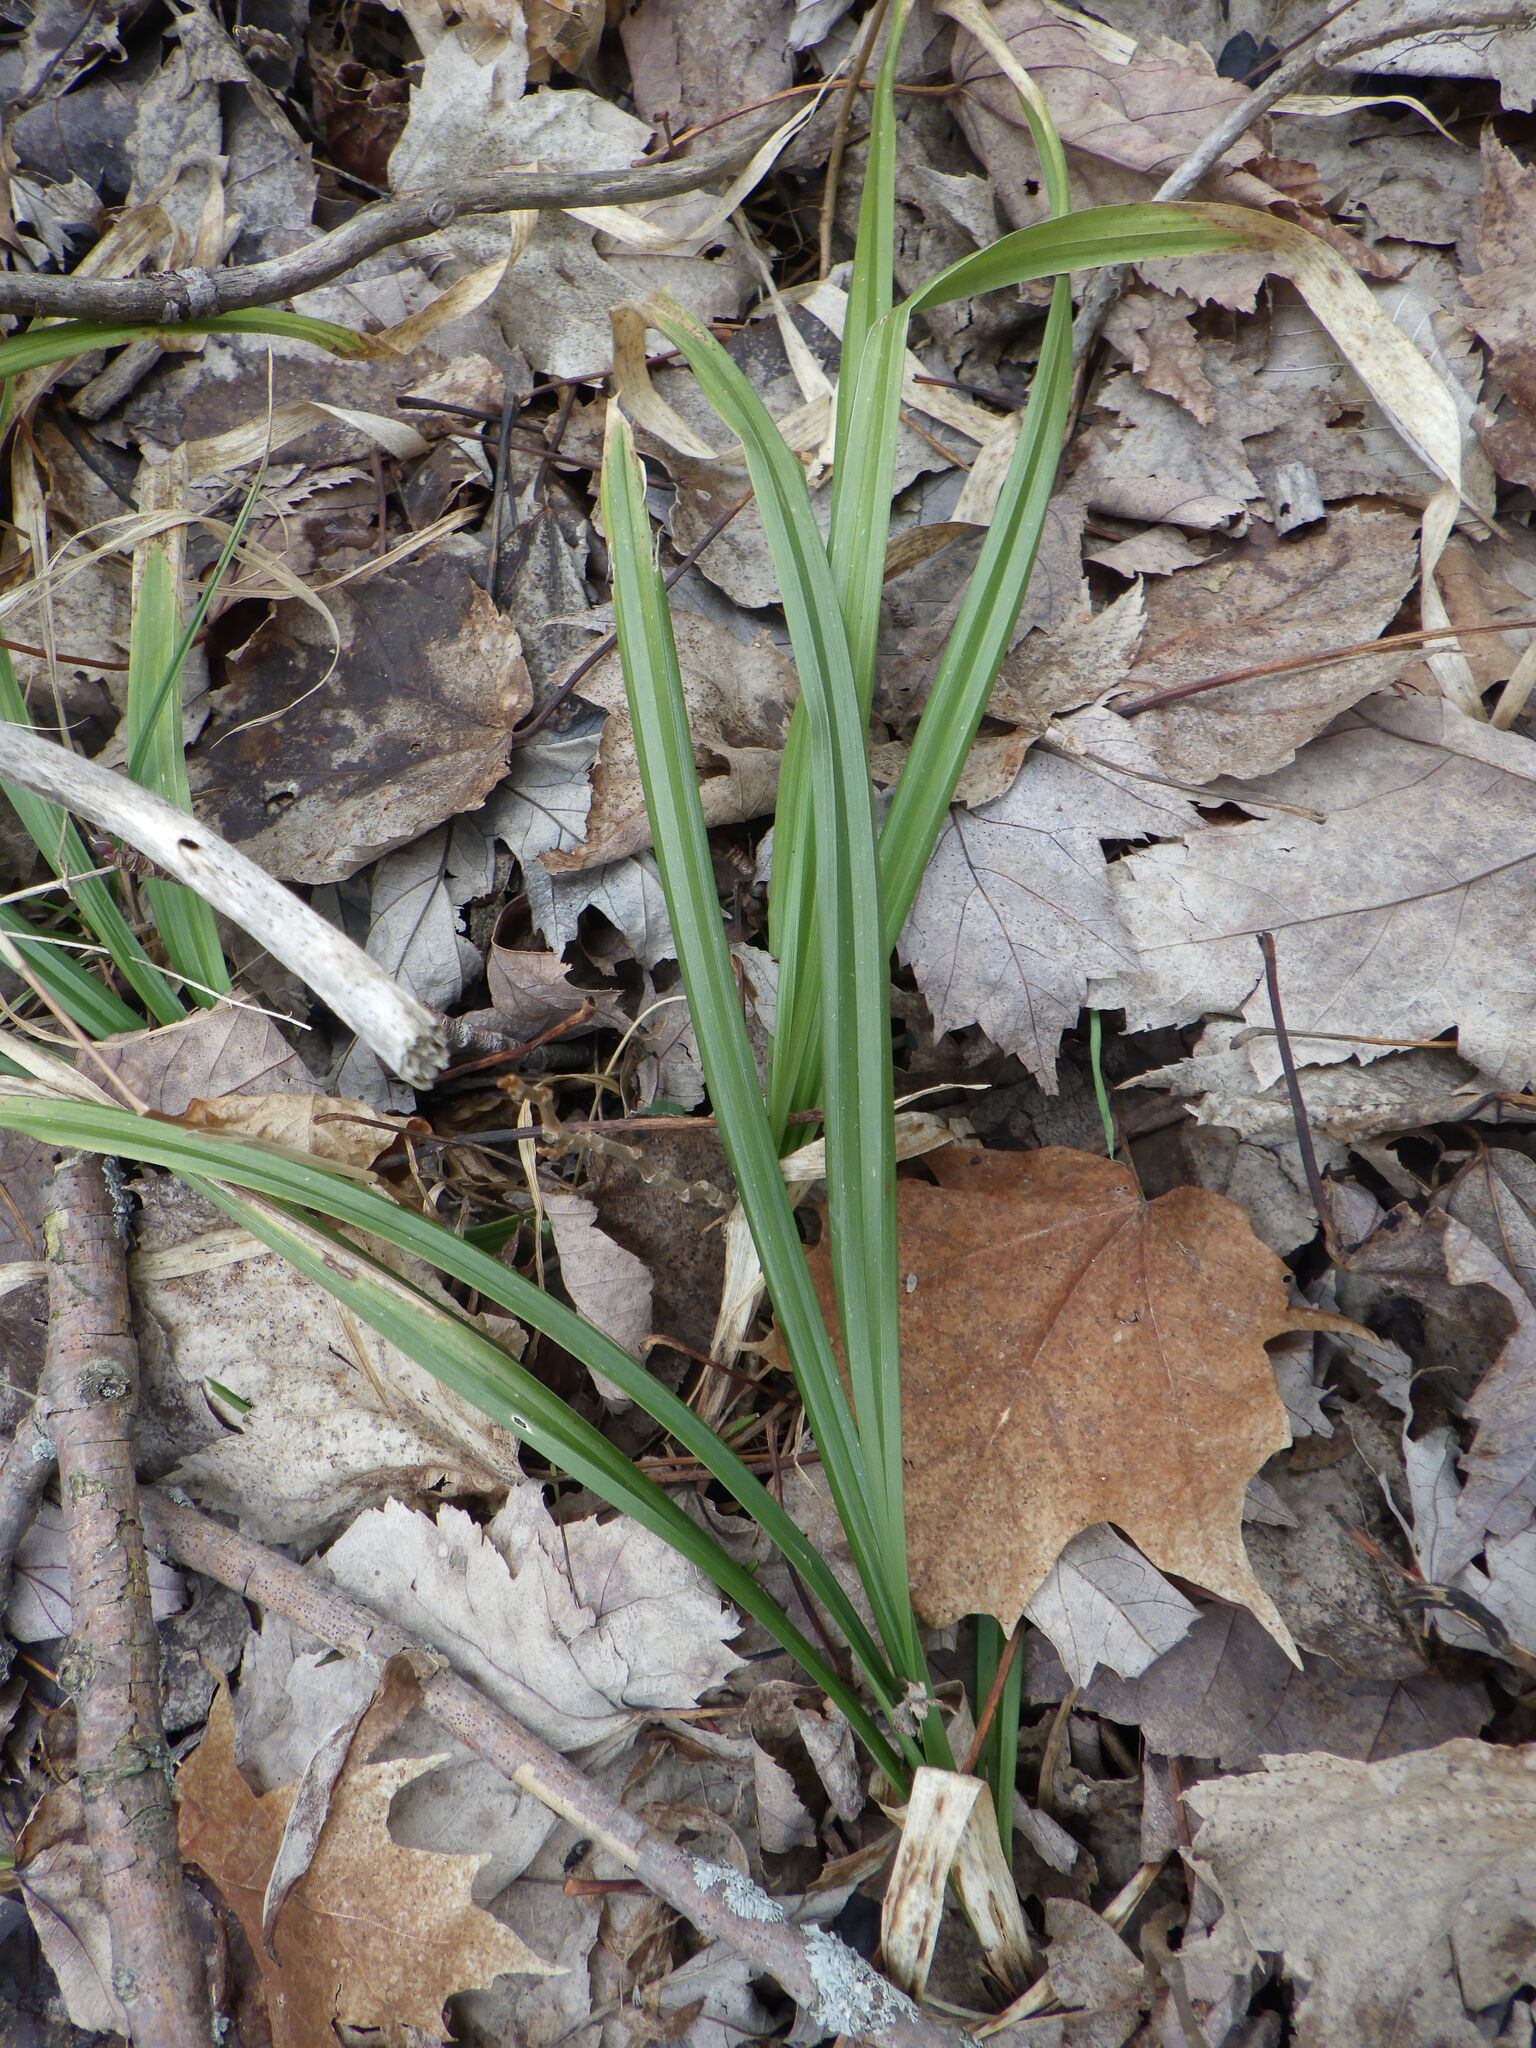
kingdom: Plantae
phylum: Tracheophyta
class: Liliopsida
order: Poales
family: Cyperaceae
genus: Carex
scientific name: Carex
